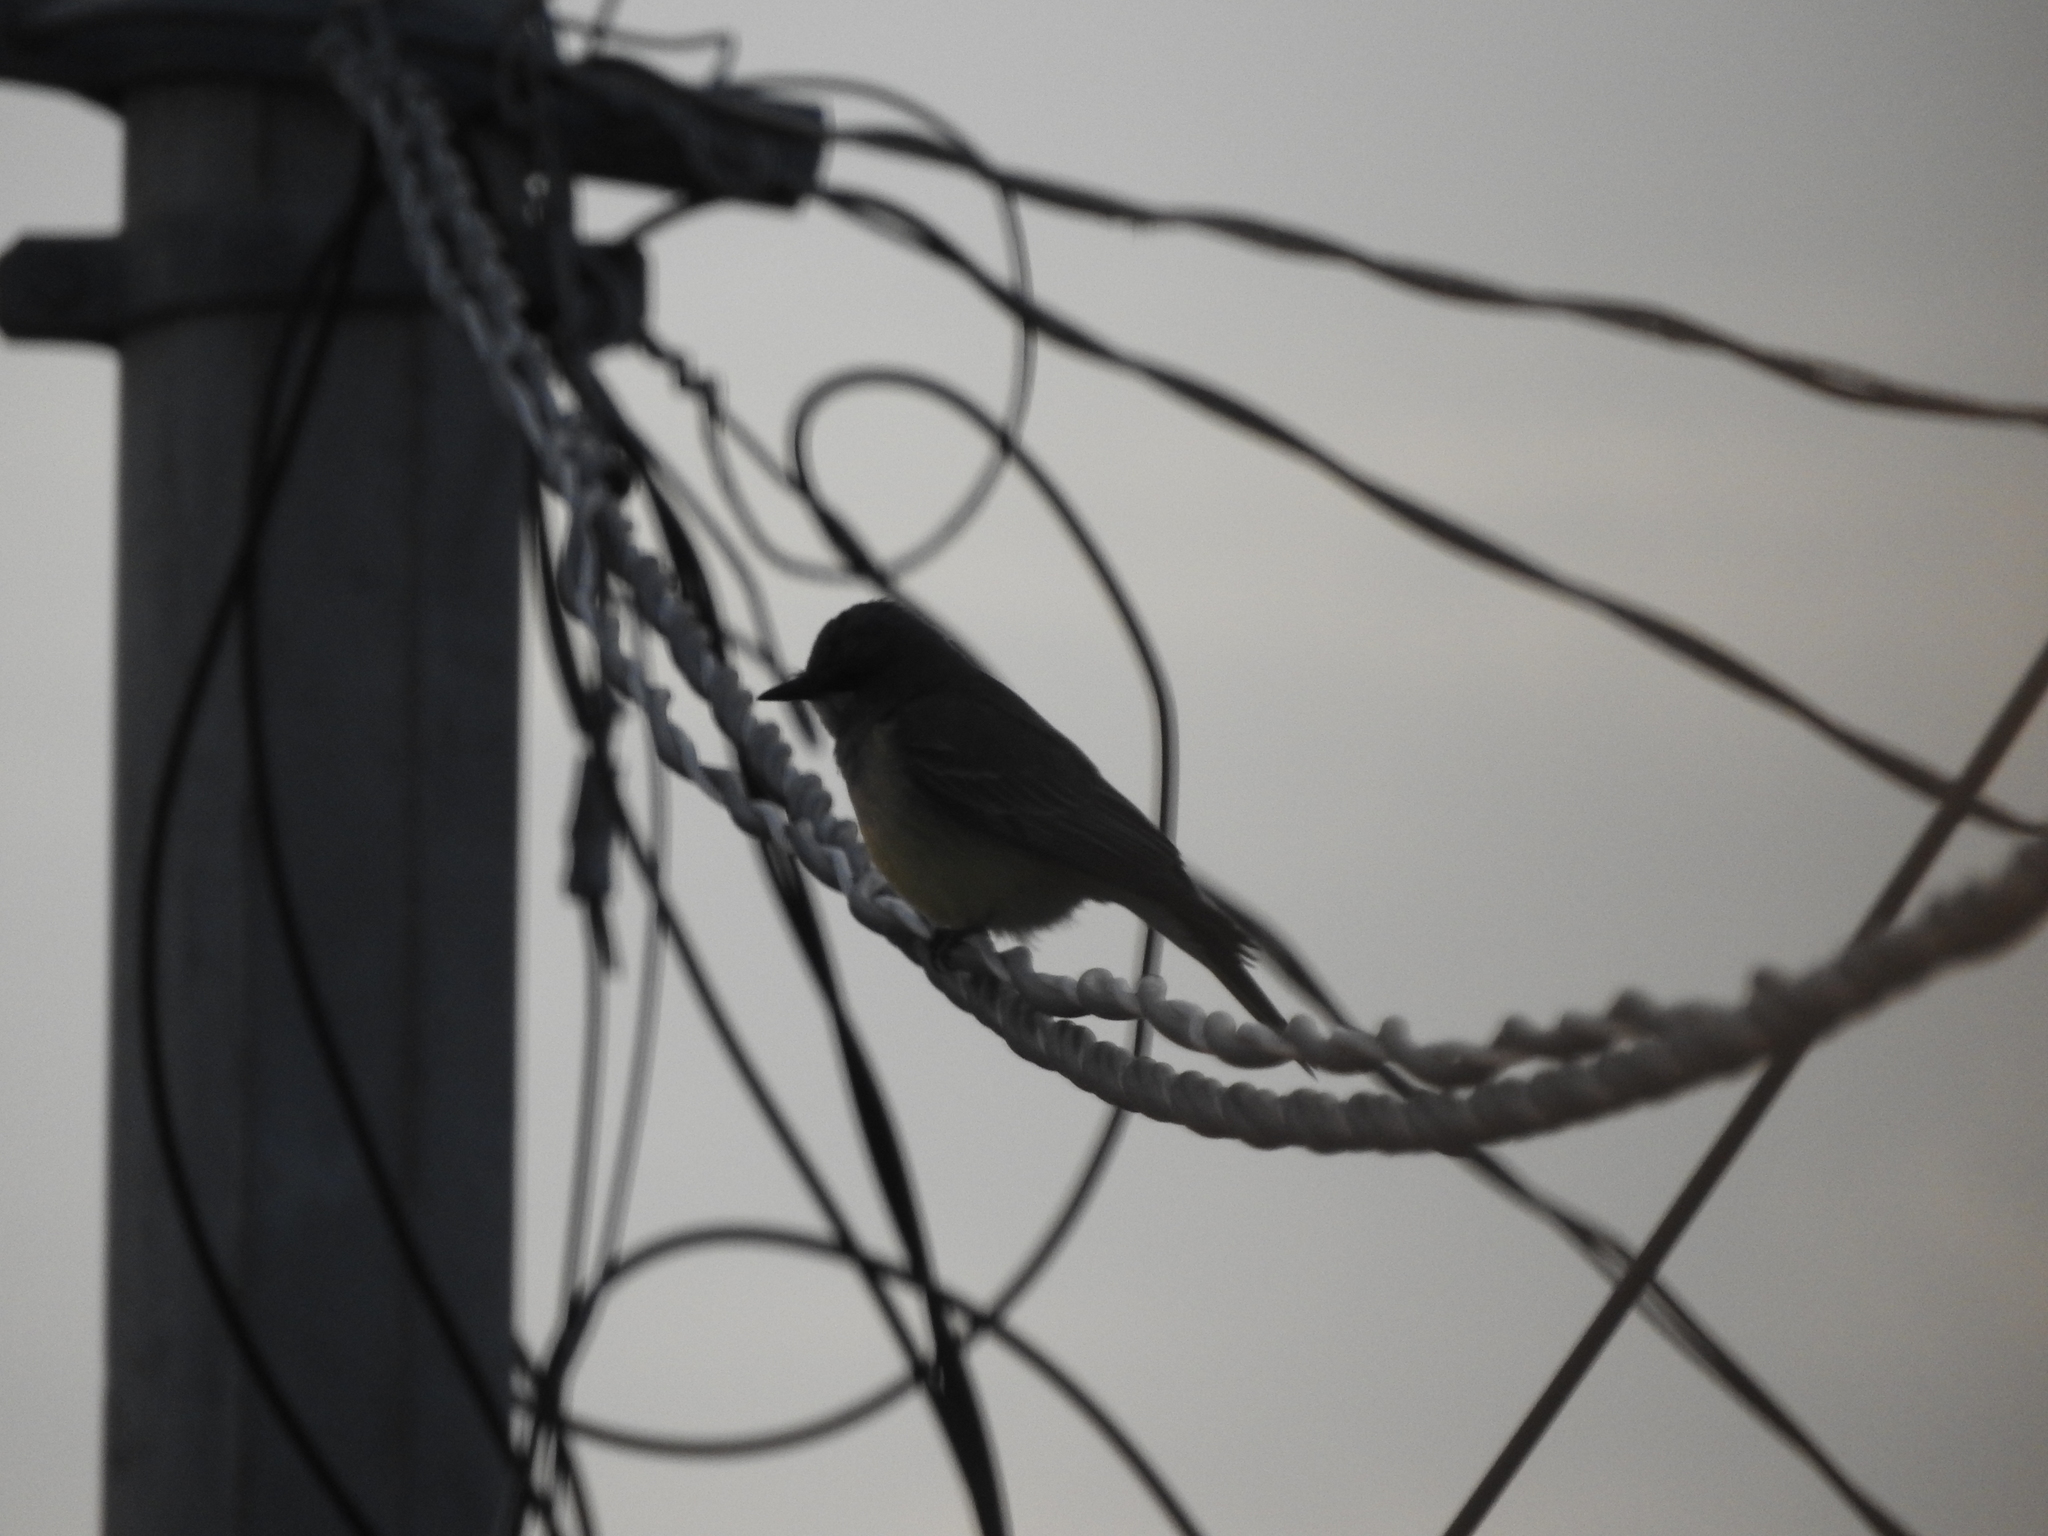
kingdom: Animalia
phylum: Chordata
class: Aves
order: Passeriformes
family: Tyrannidae
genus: Tyrannus
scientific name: Tyrannus vociferans
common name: Cassin's kingbird
